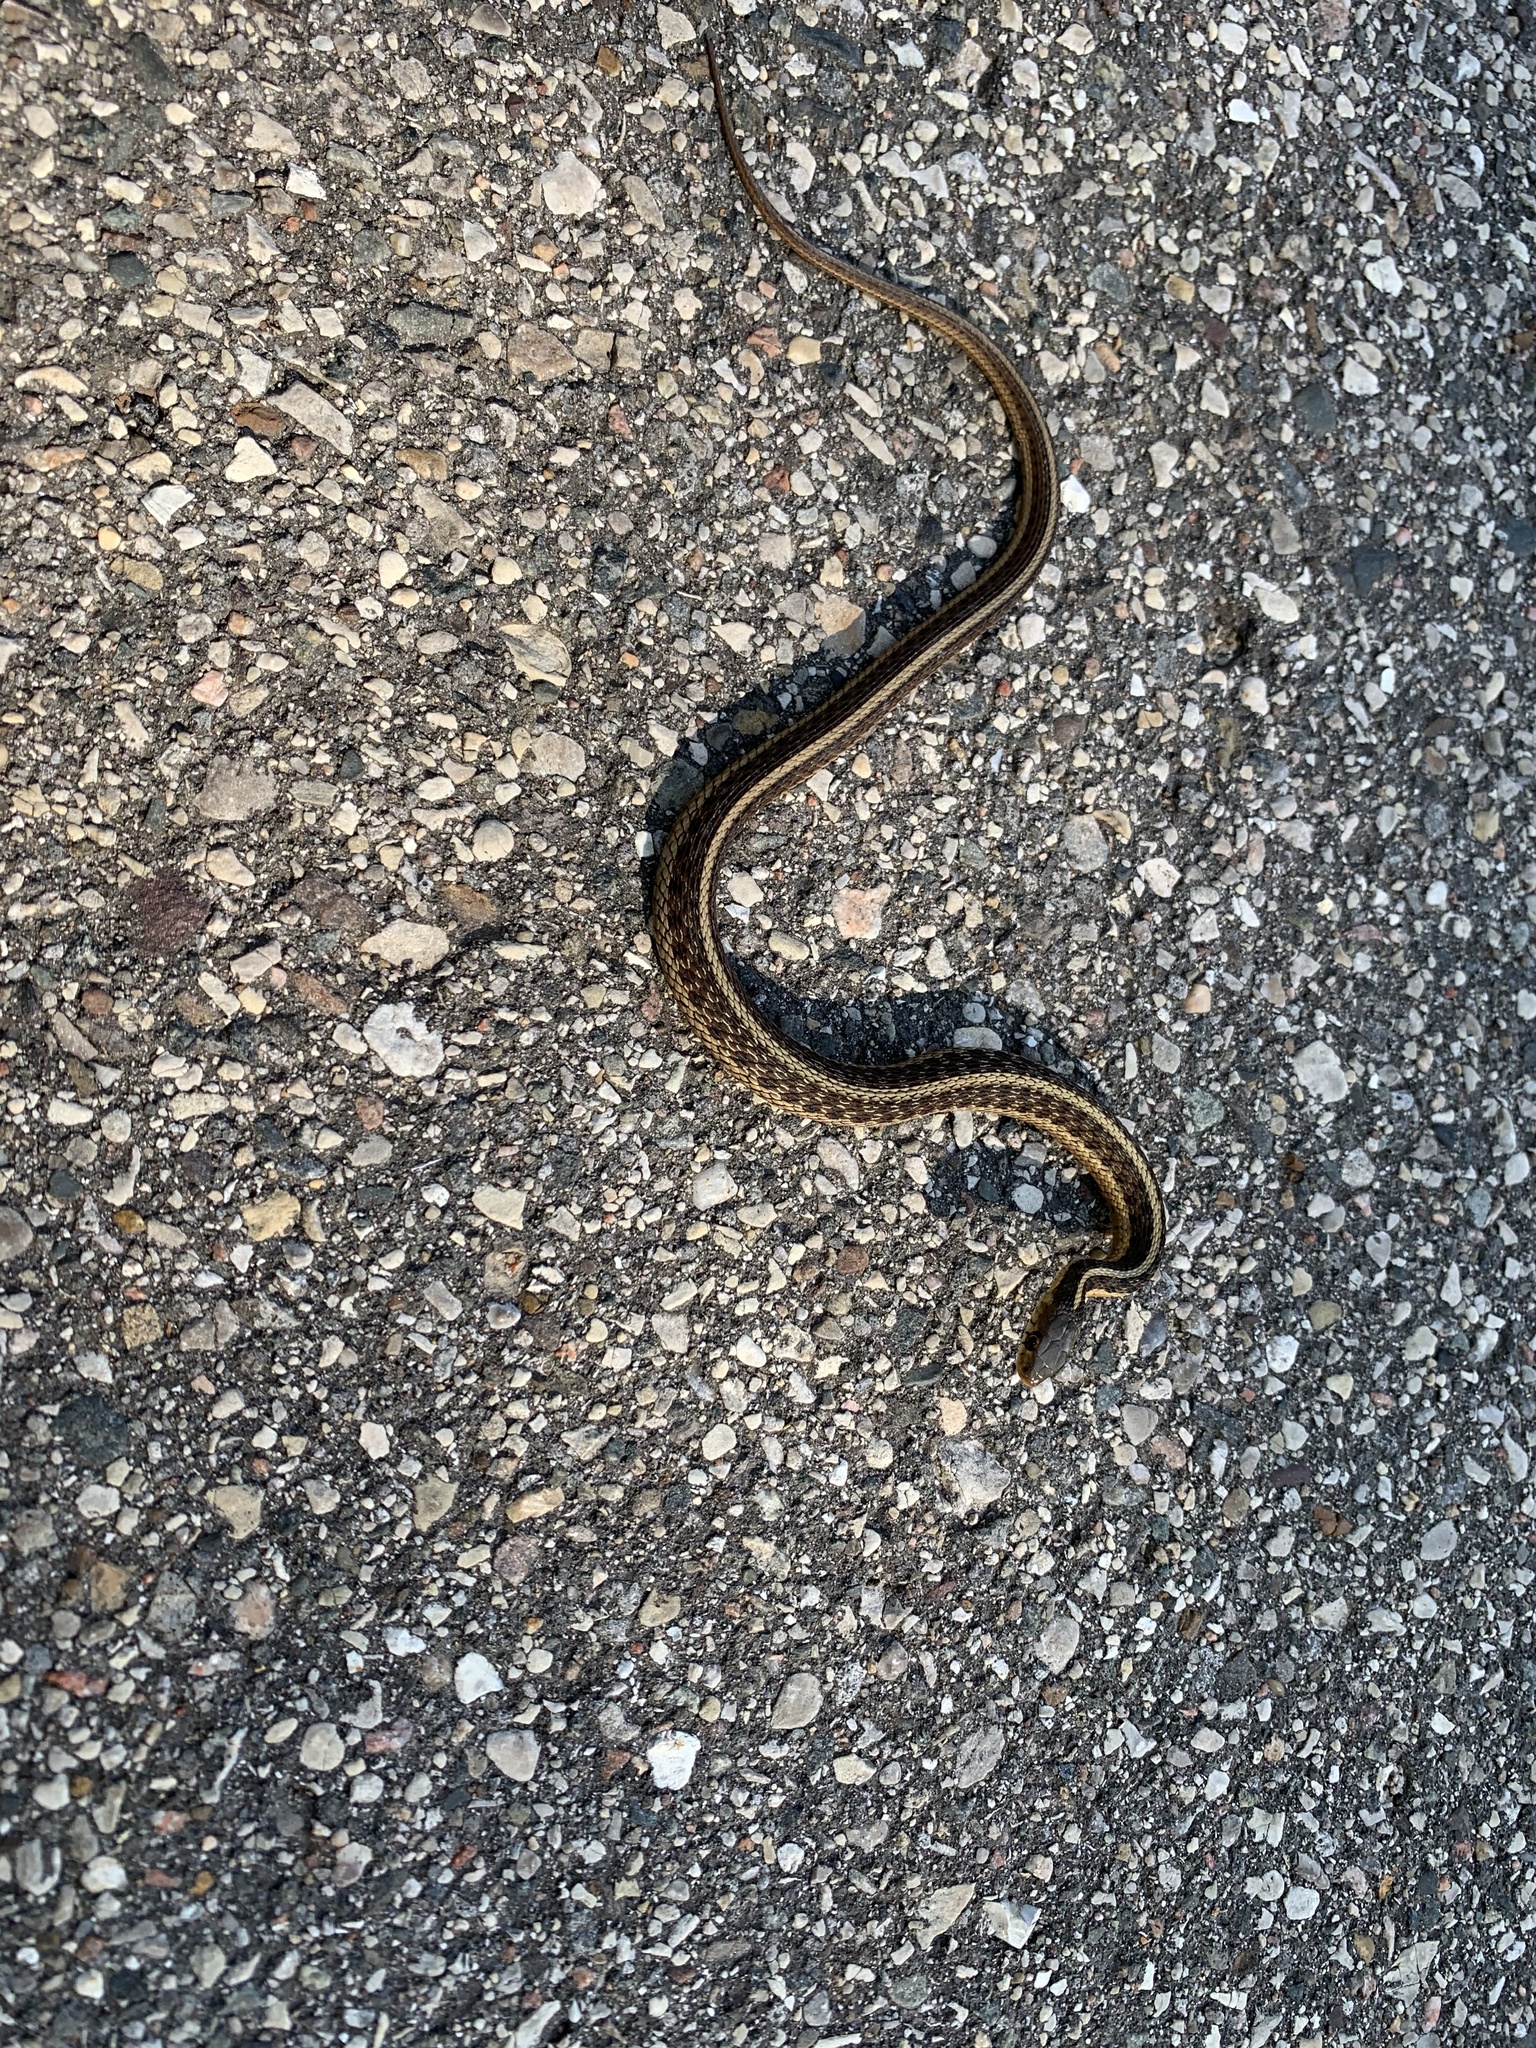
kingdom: Animalia
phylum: Chordata
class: Squamata
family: Colubridae
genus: Thamnophis
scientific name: Thamnophis sirtalis
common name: Common garter snake
